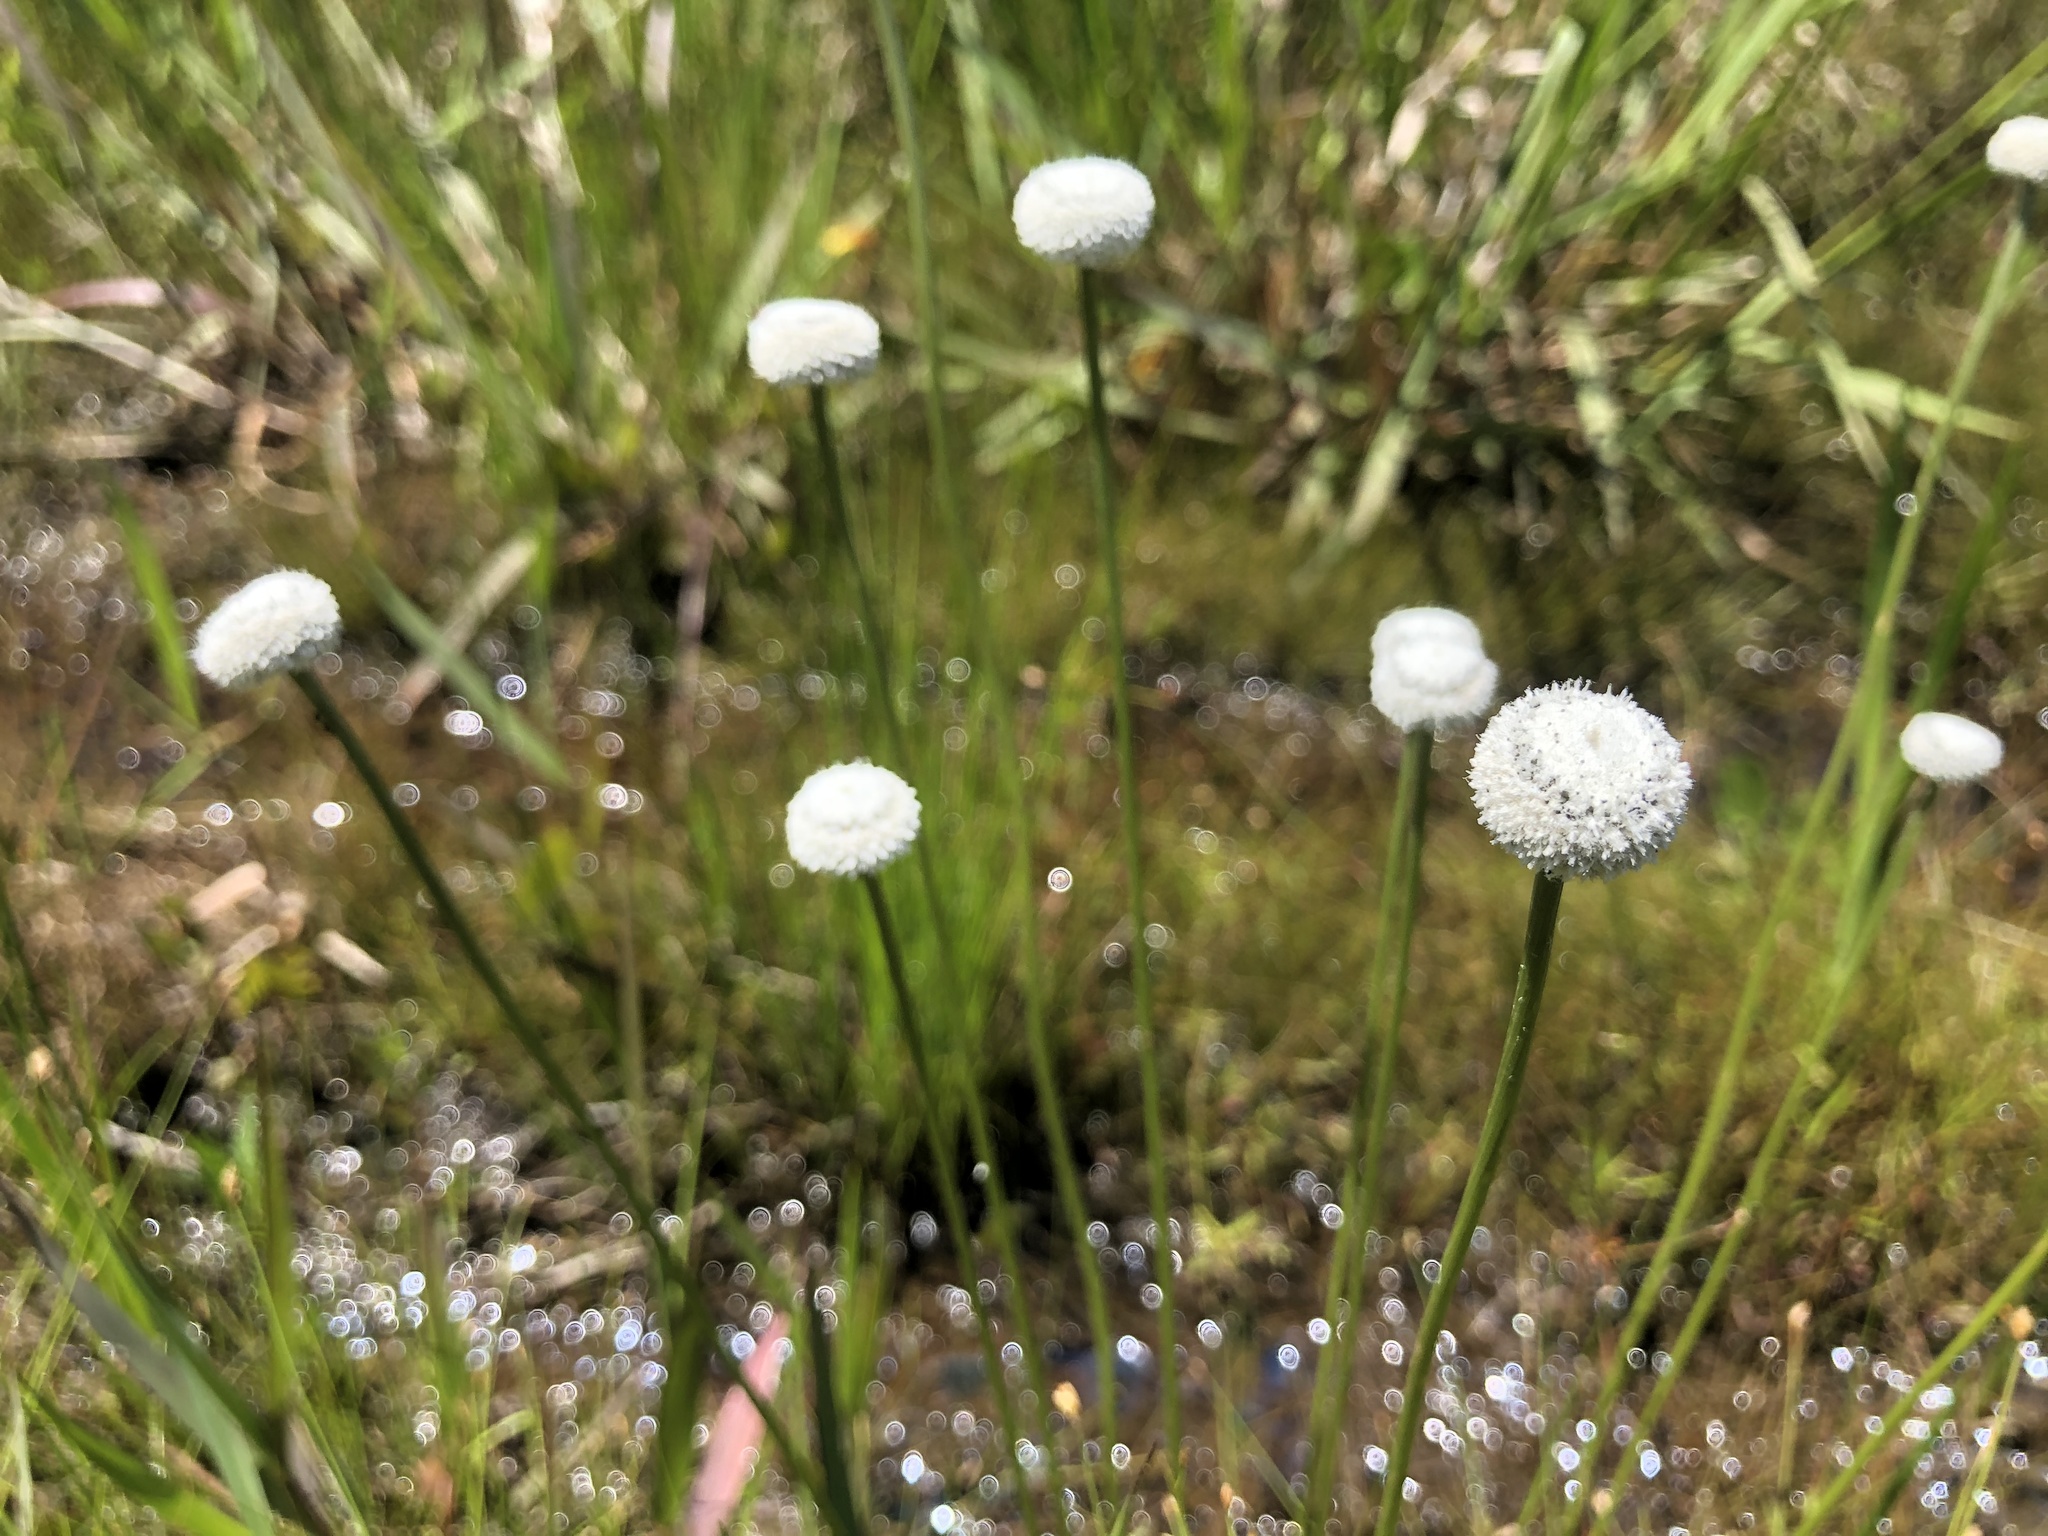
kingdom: Plantae
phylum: Tracheophyta
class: Liliopsida
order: Poales
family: Eriocaulaceae
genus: Eriocaulon
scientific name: Eriocaulon compressum
